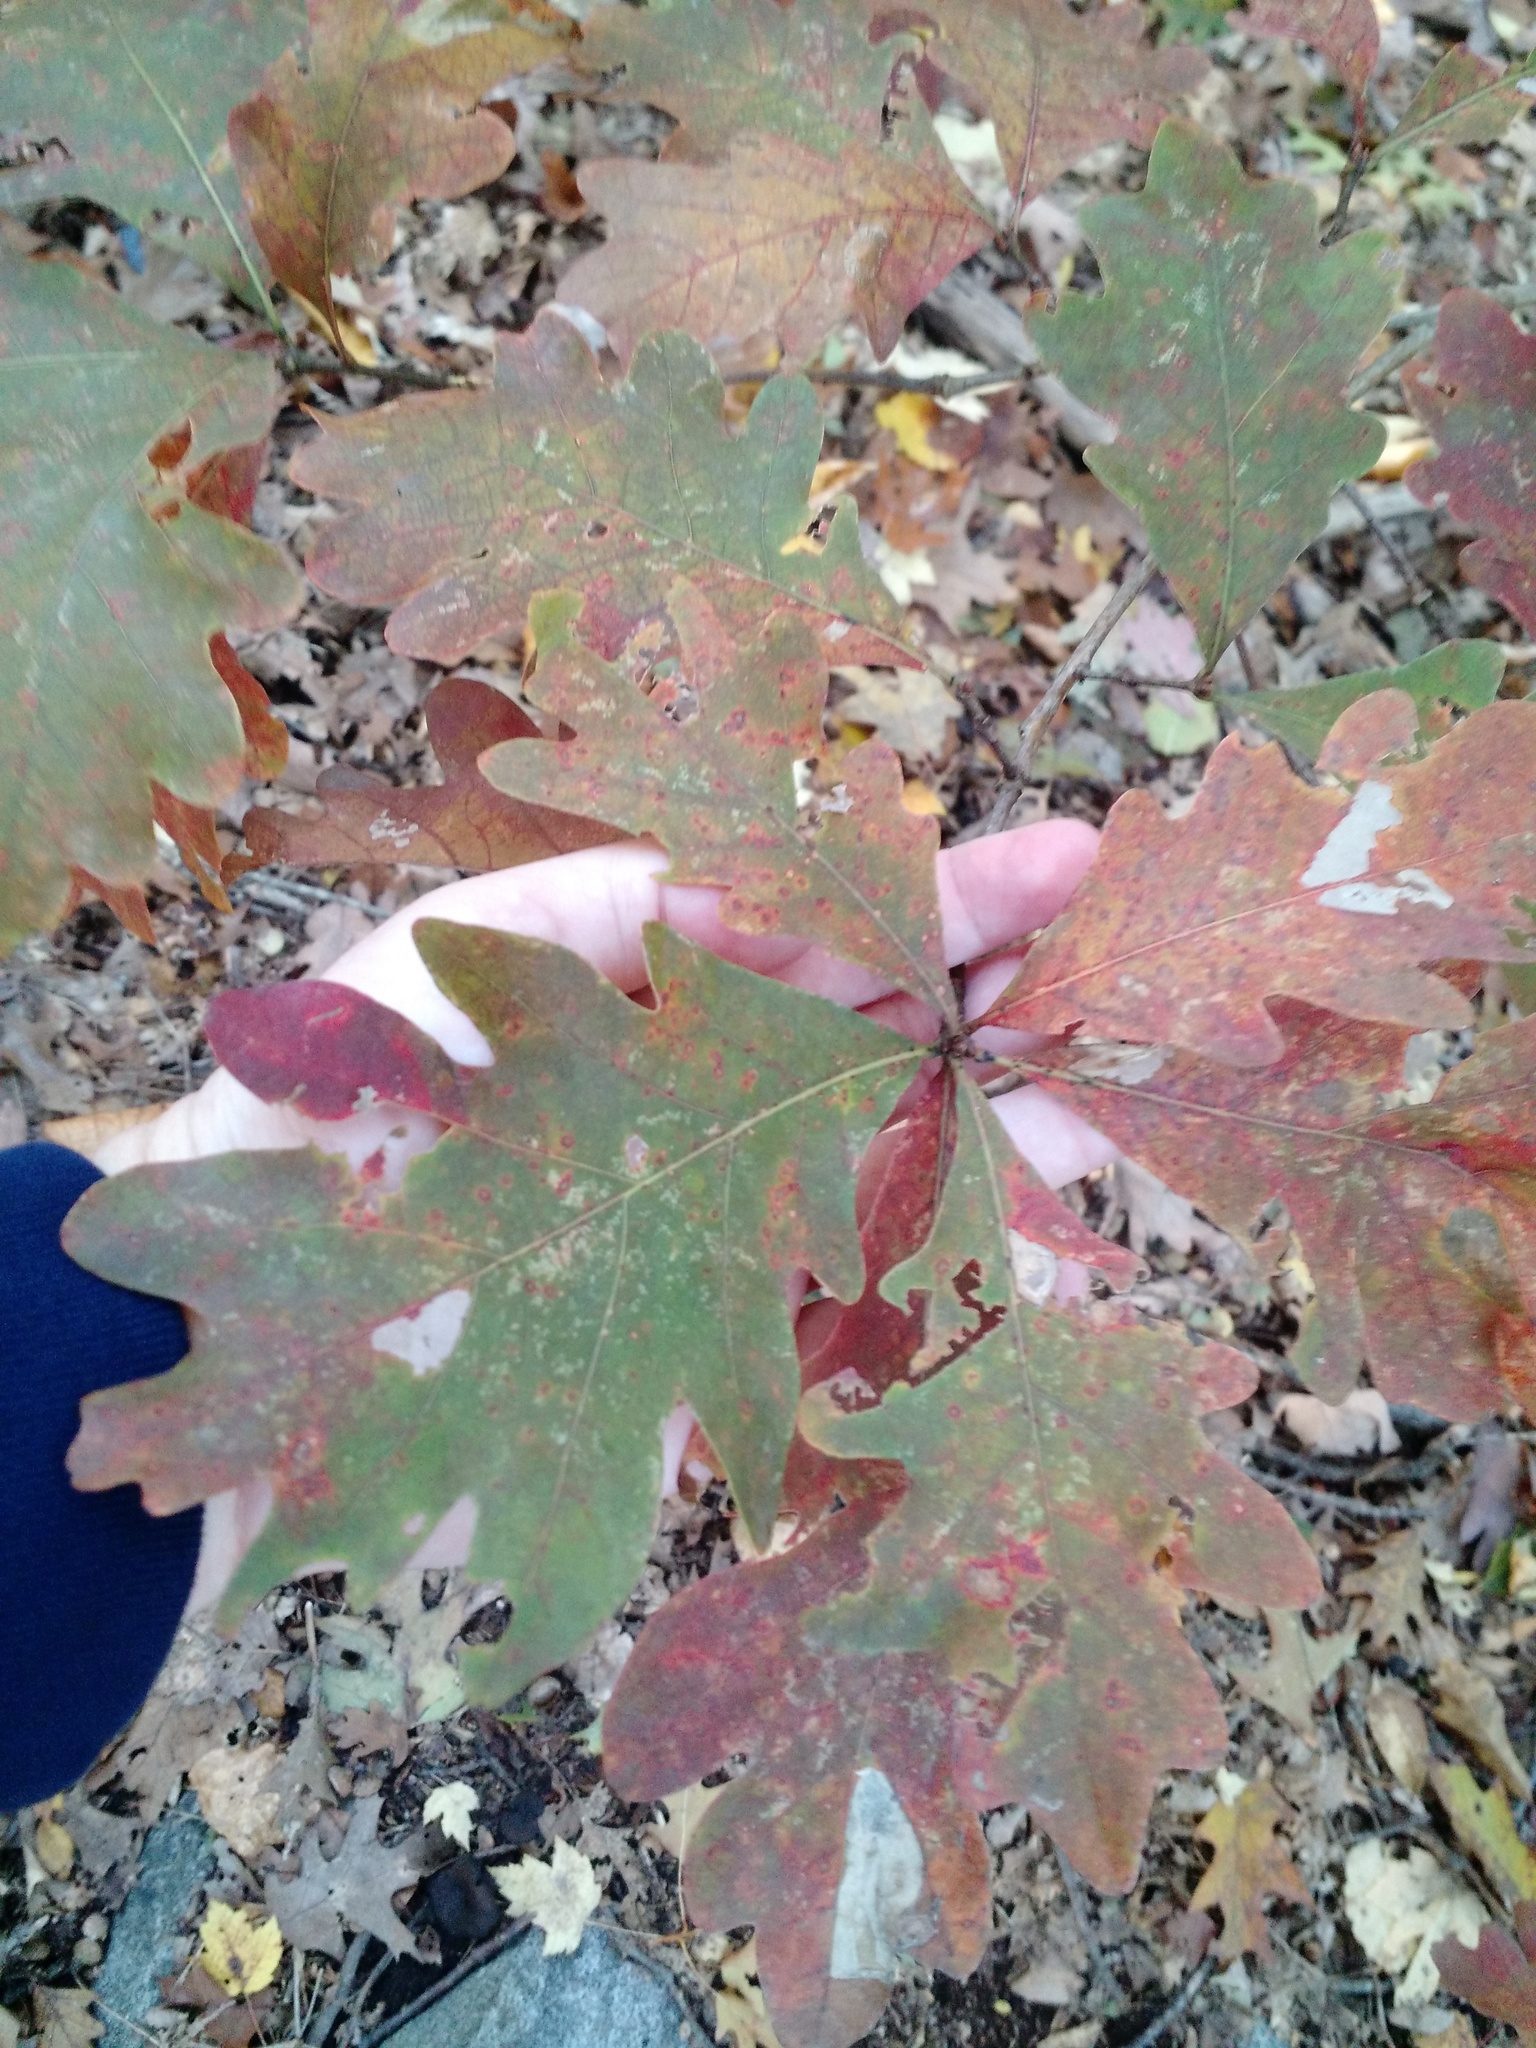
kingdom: Plantae
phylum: Tracheophyta
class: Magnoliopsida
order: Fagales
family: Fagaceae
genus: Quercus
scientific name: Quercus alba
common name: White oak
